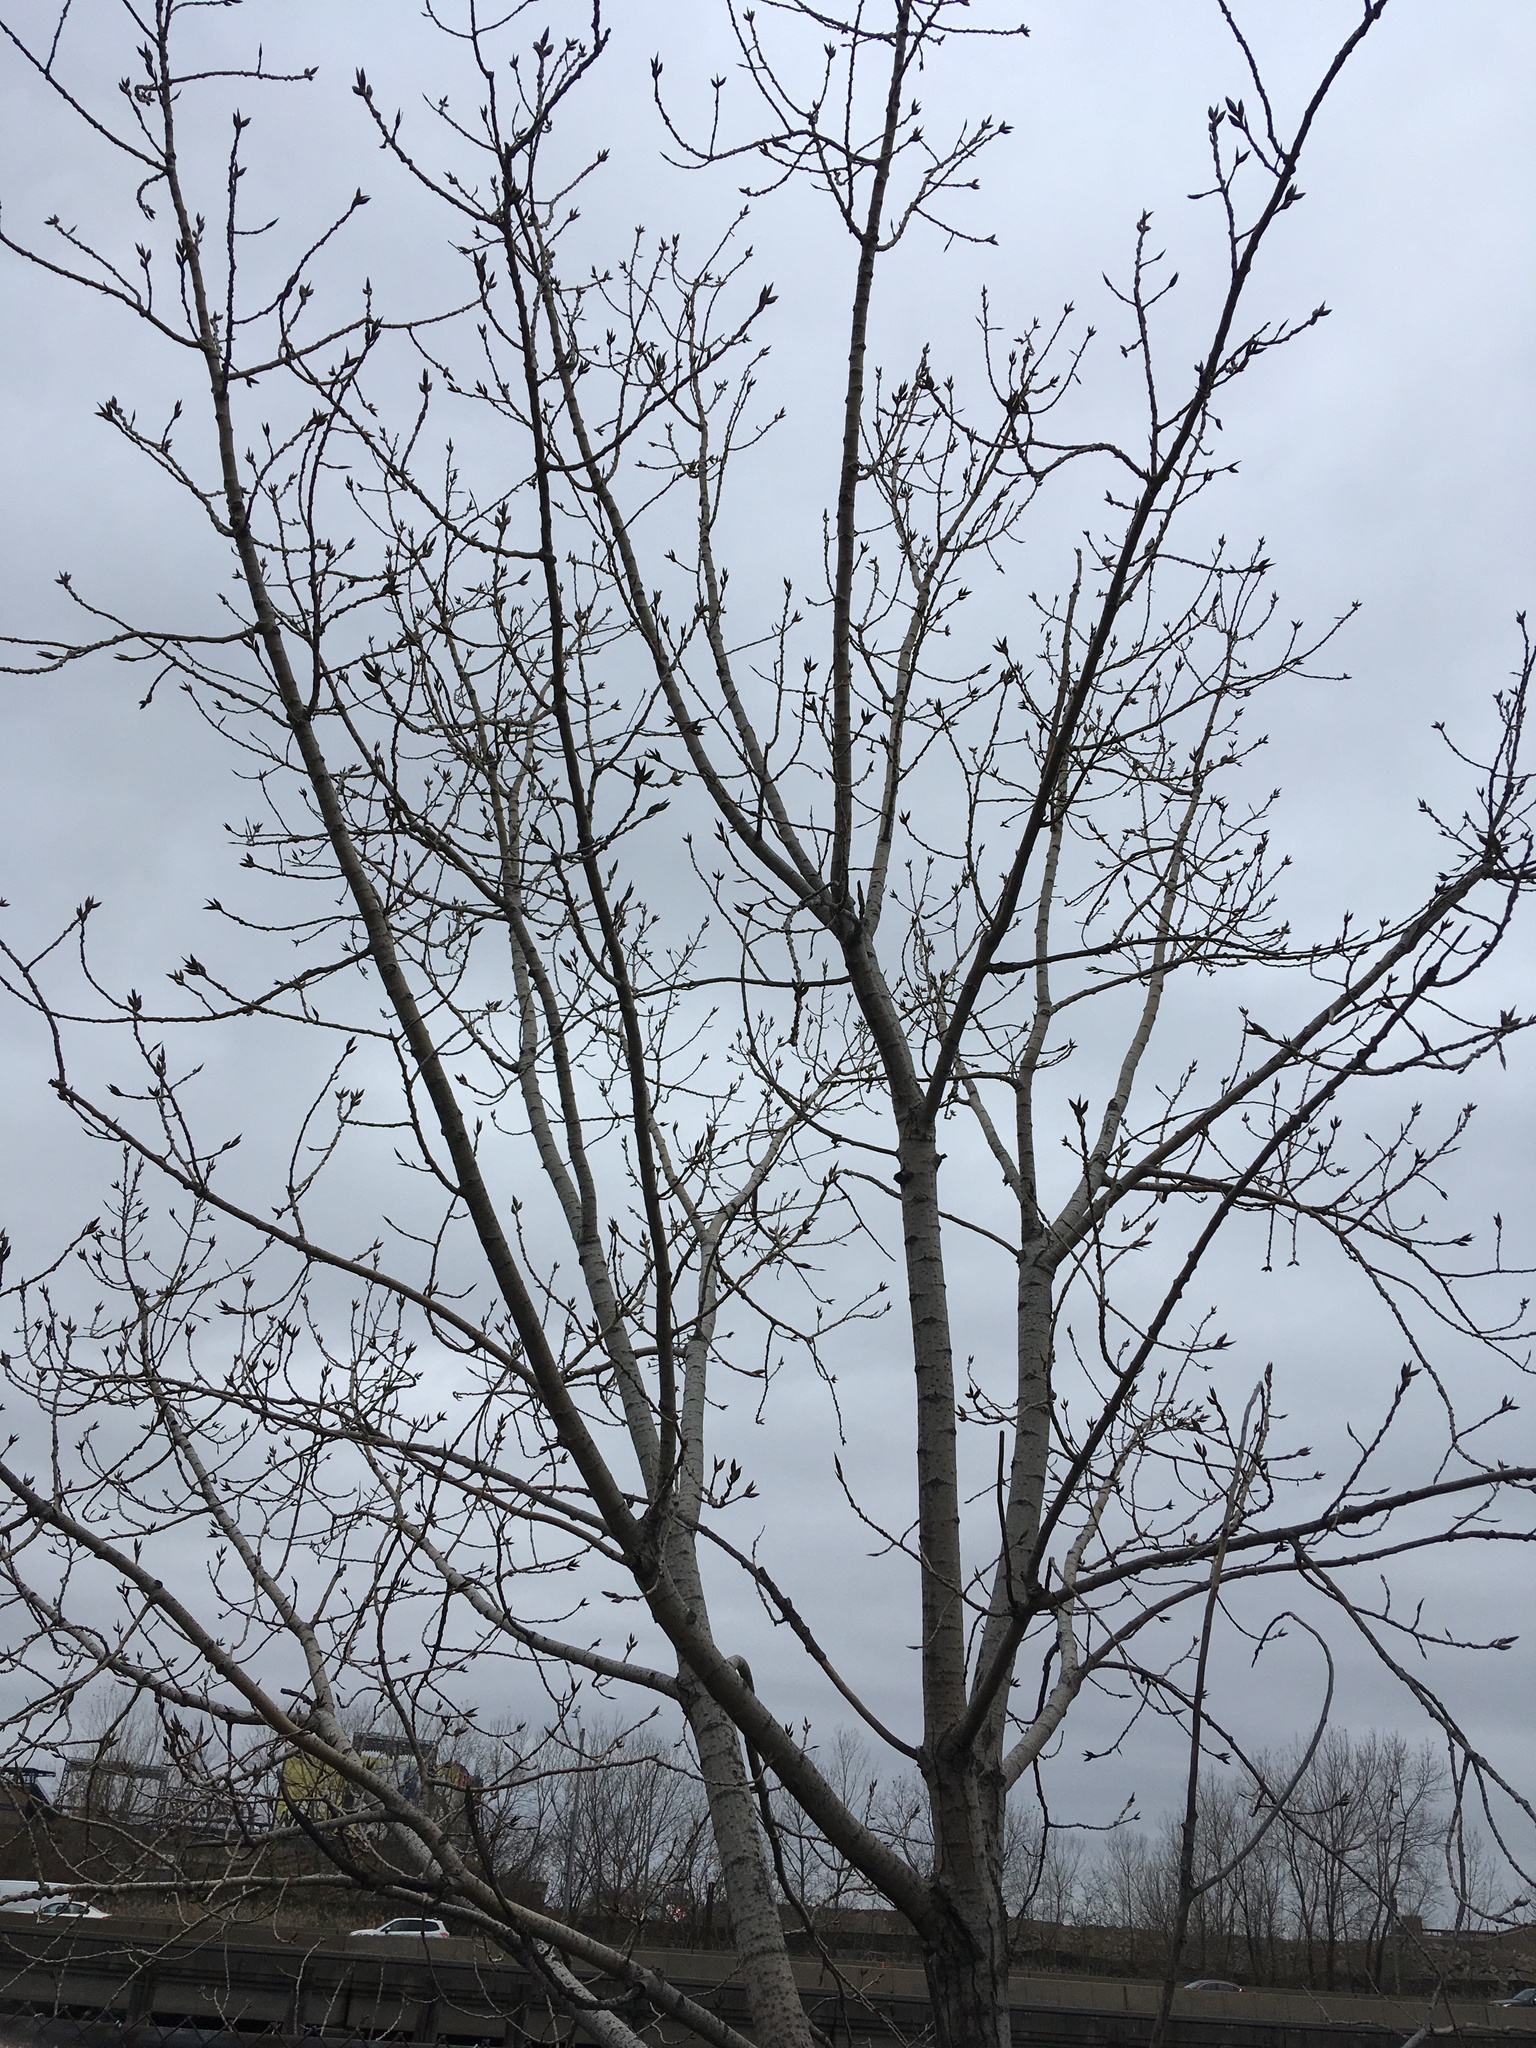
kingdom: Plantae
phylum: Tracheophyta
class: Magnoliopsida
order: Malpighiales
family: Salicaceae
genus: Populus
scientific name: Populus deltoides
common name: Eastern cottonwood
